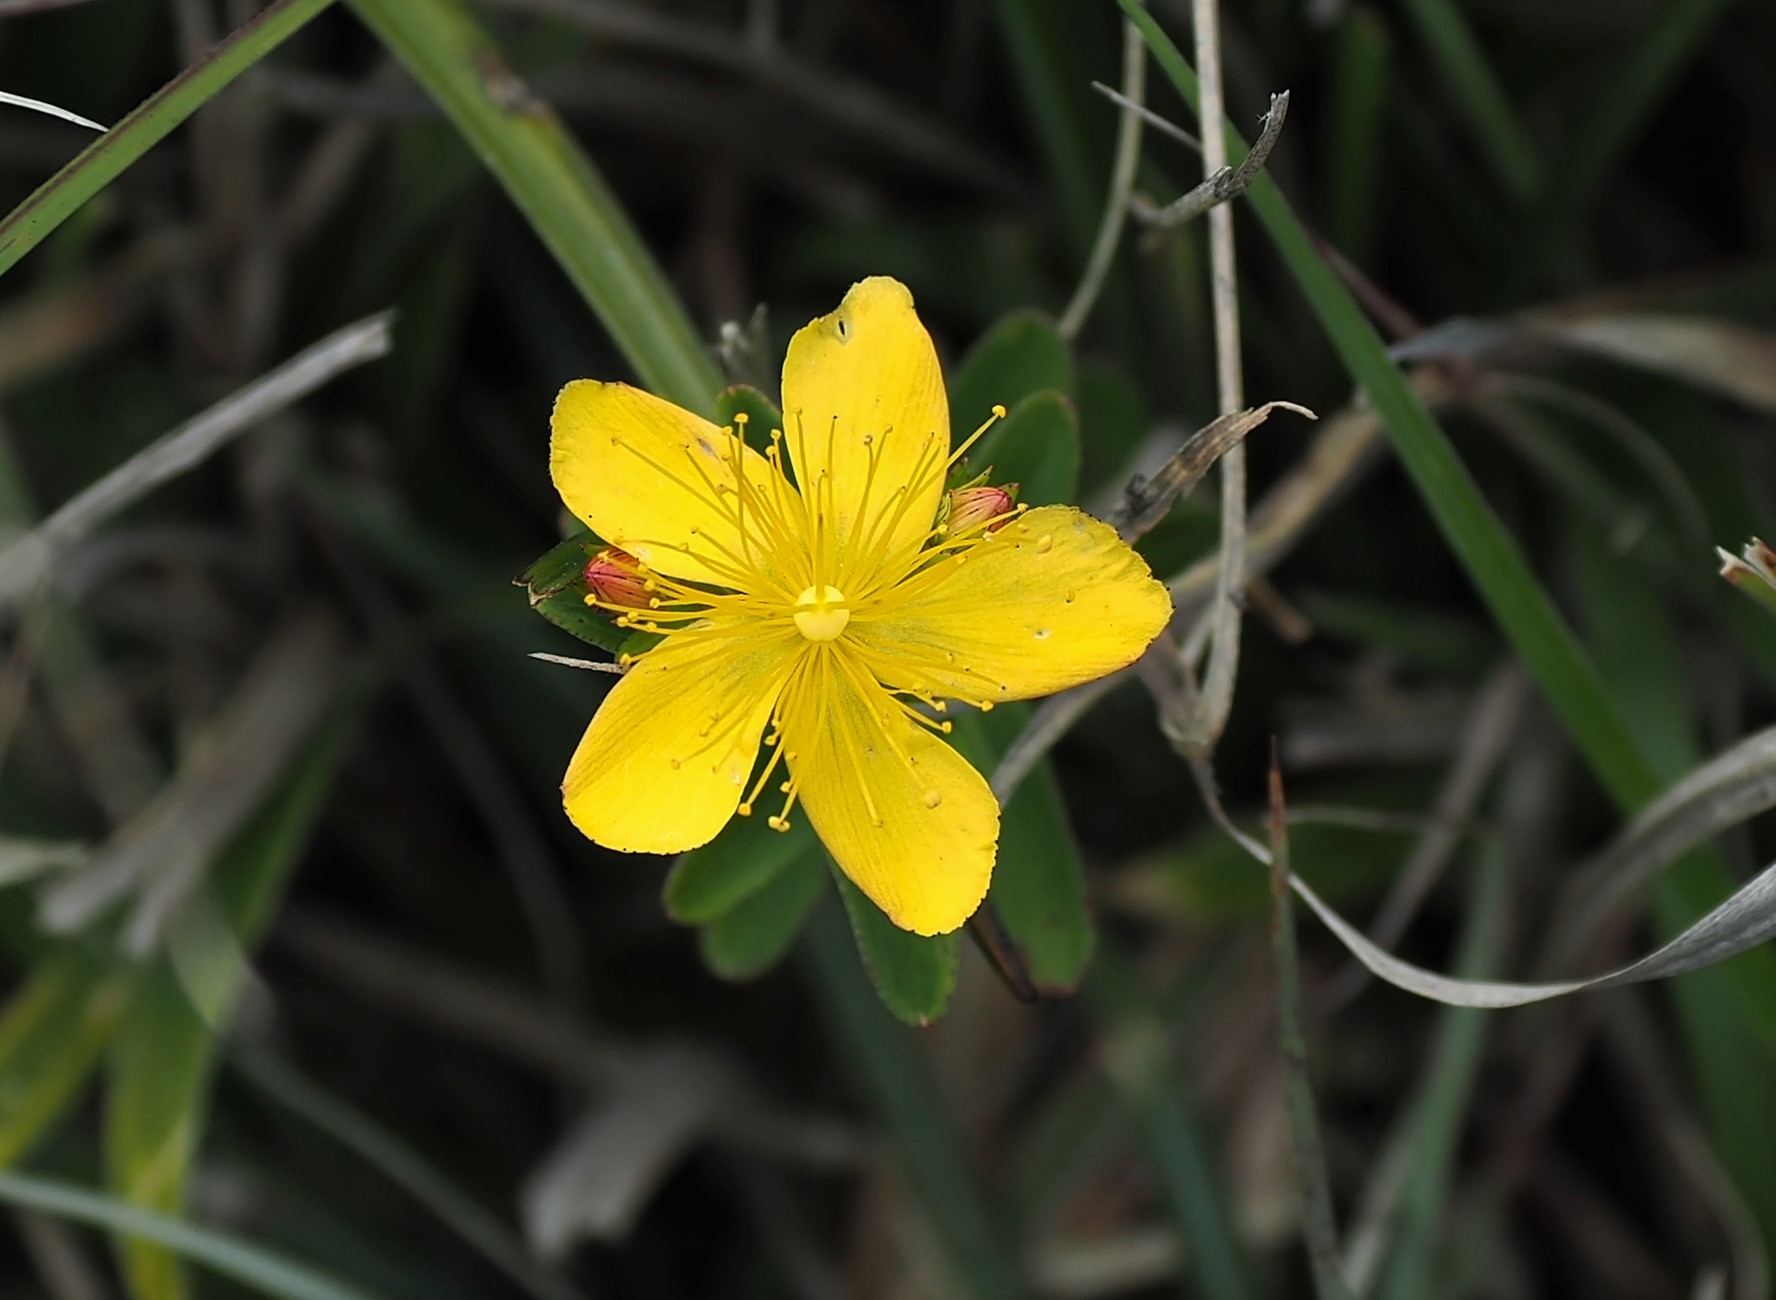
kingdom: Plantae
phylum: Tracheophyta
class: Magnoliopsida
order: Malpighiales
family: Hypericaceae
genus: Hypericum
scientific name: Hypericum nagasawae
